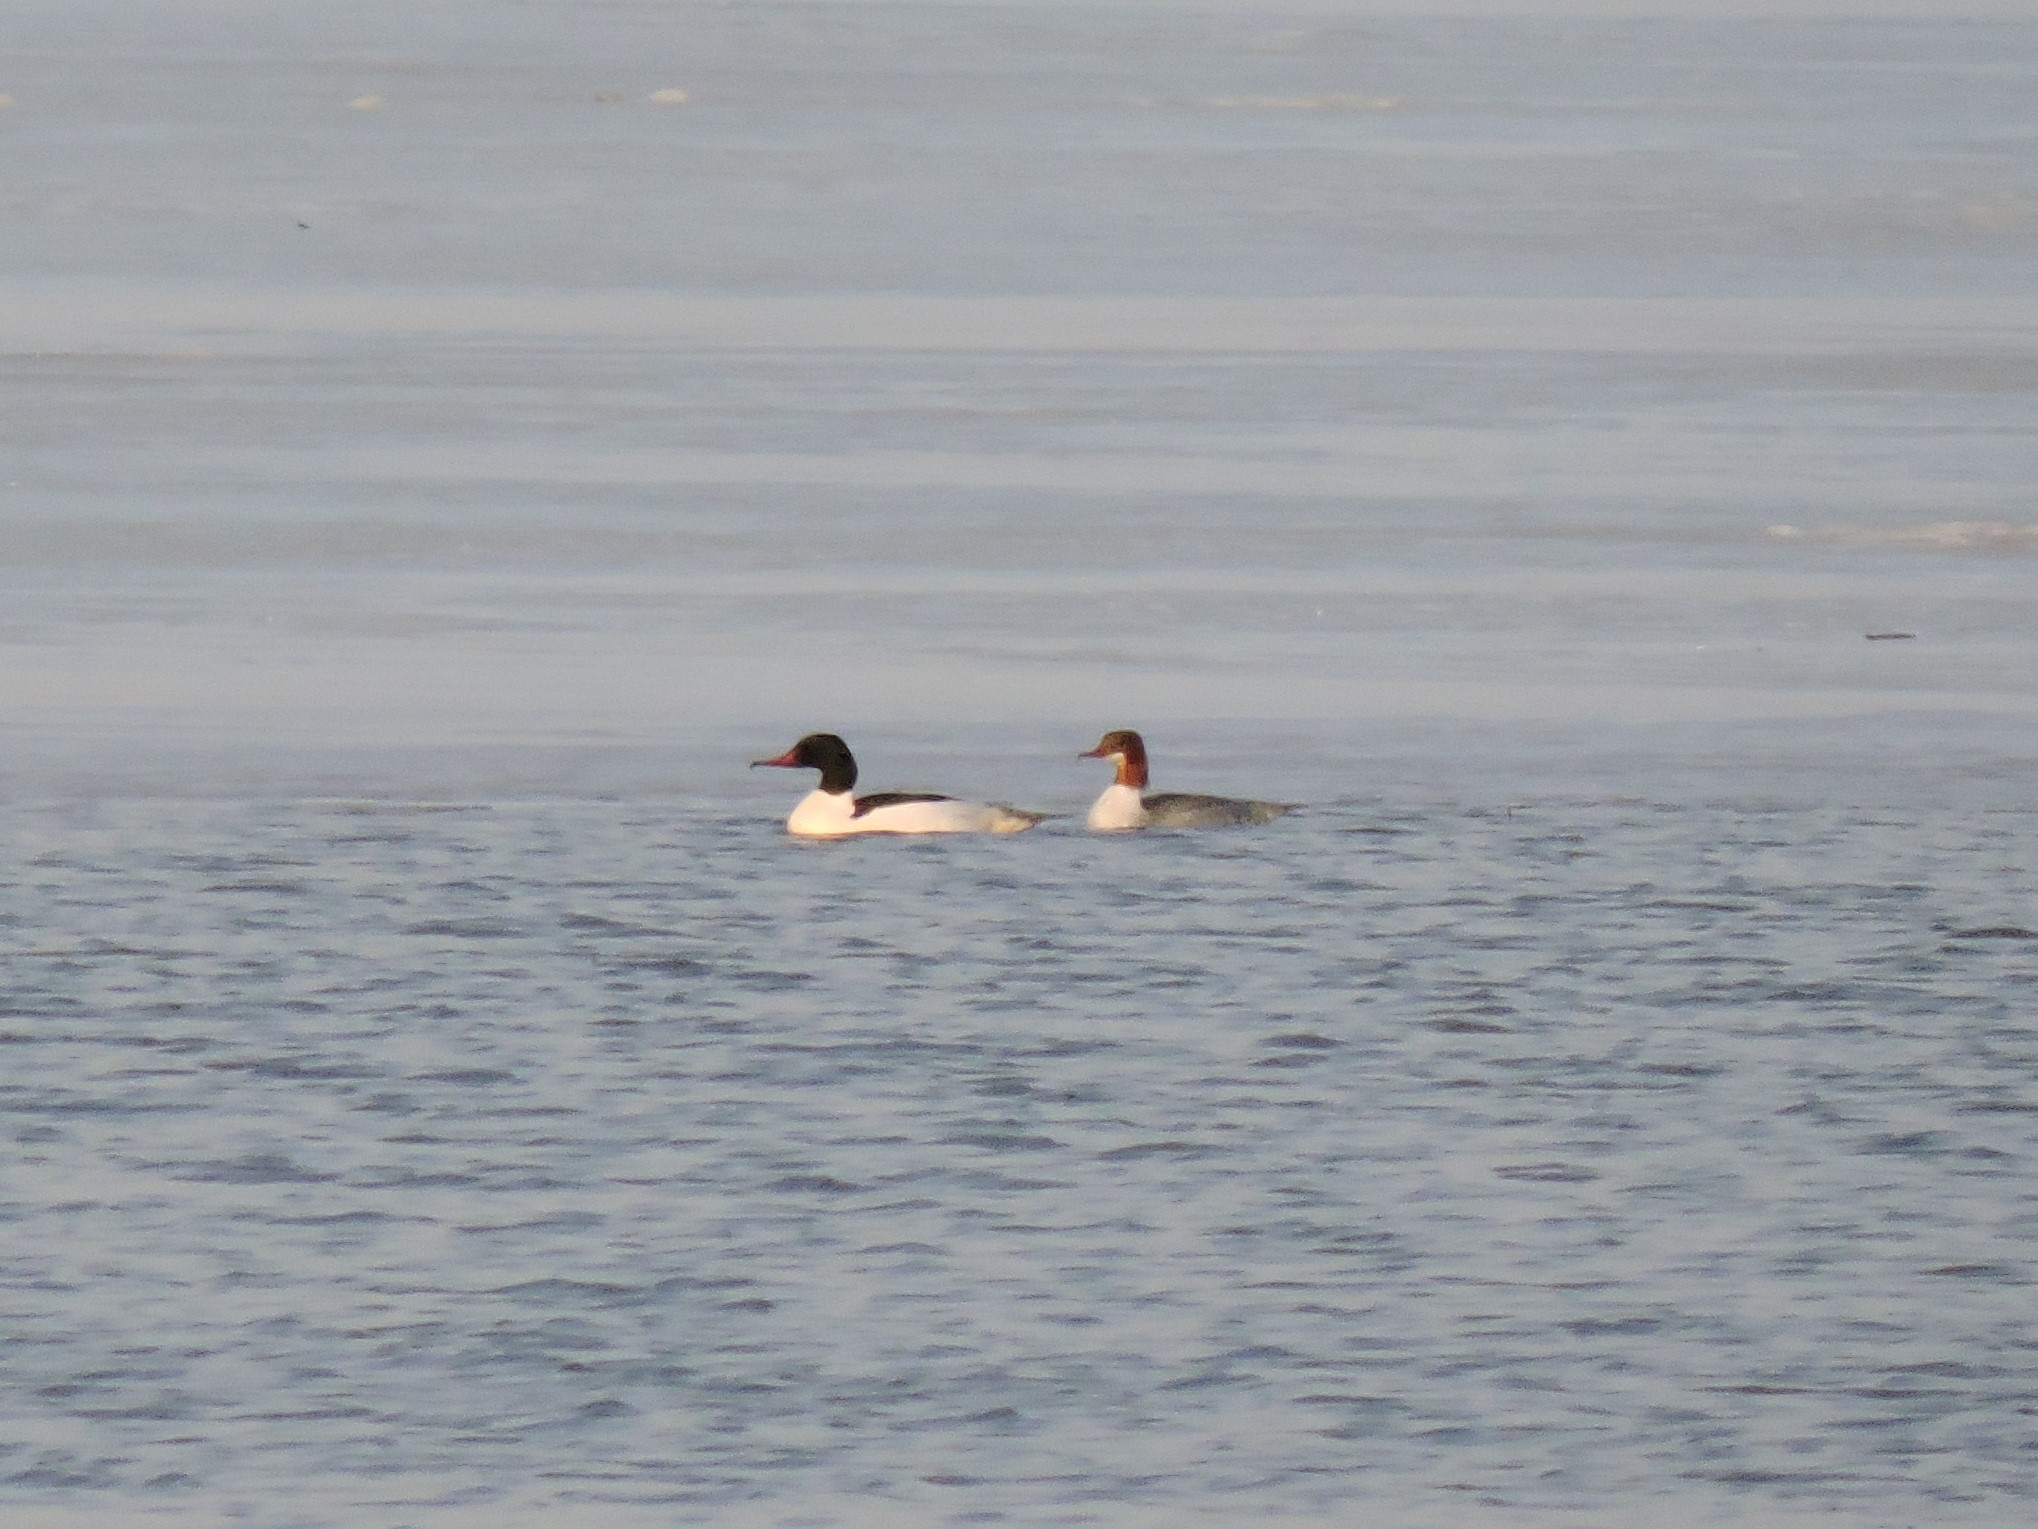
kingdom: Animalia
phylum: Chordata
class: Aves
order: Anseriformes
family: Anatidae
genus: Mergus
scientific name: Mergus merganser
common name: Common merganser
